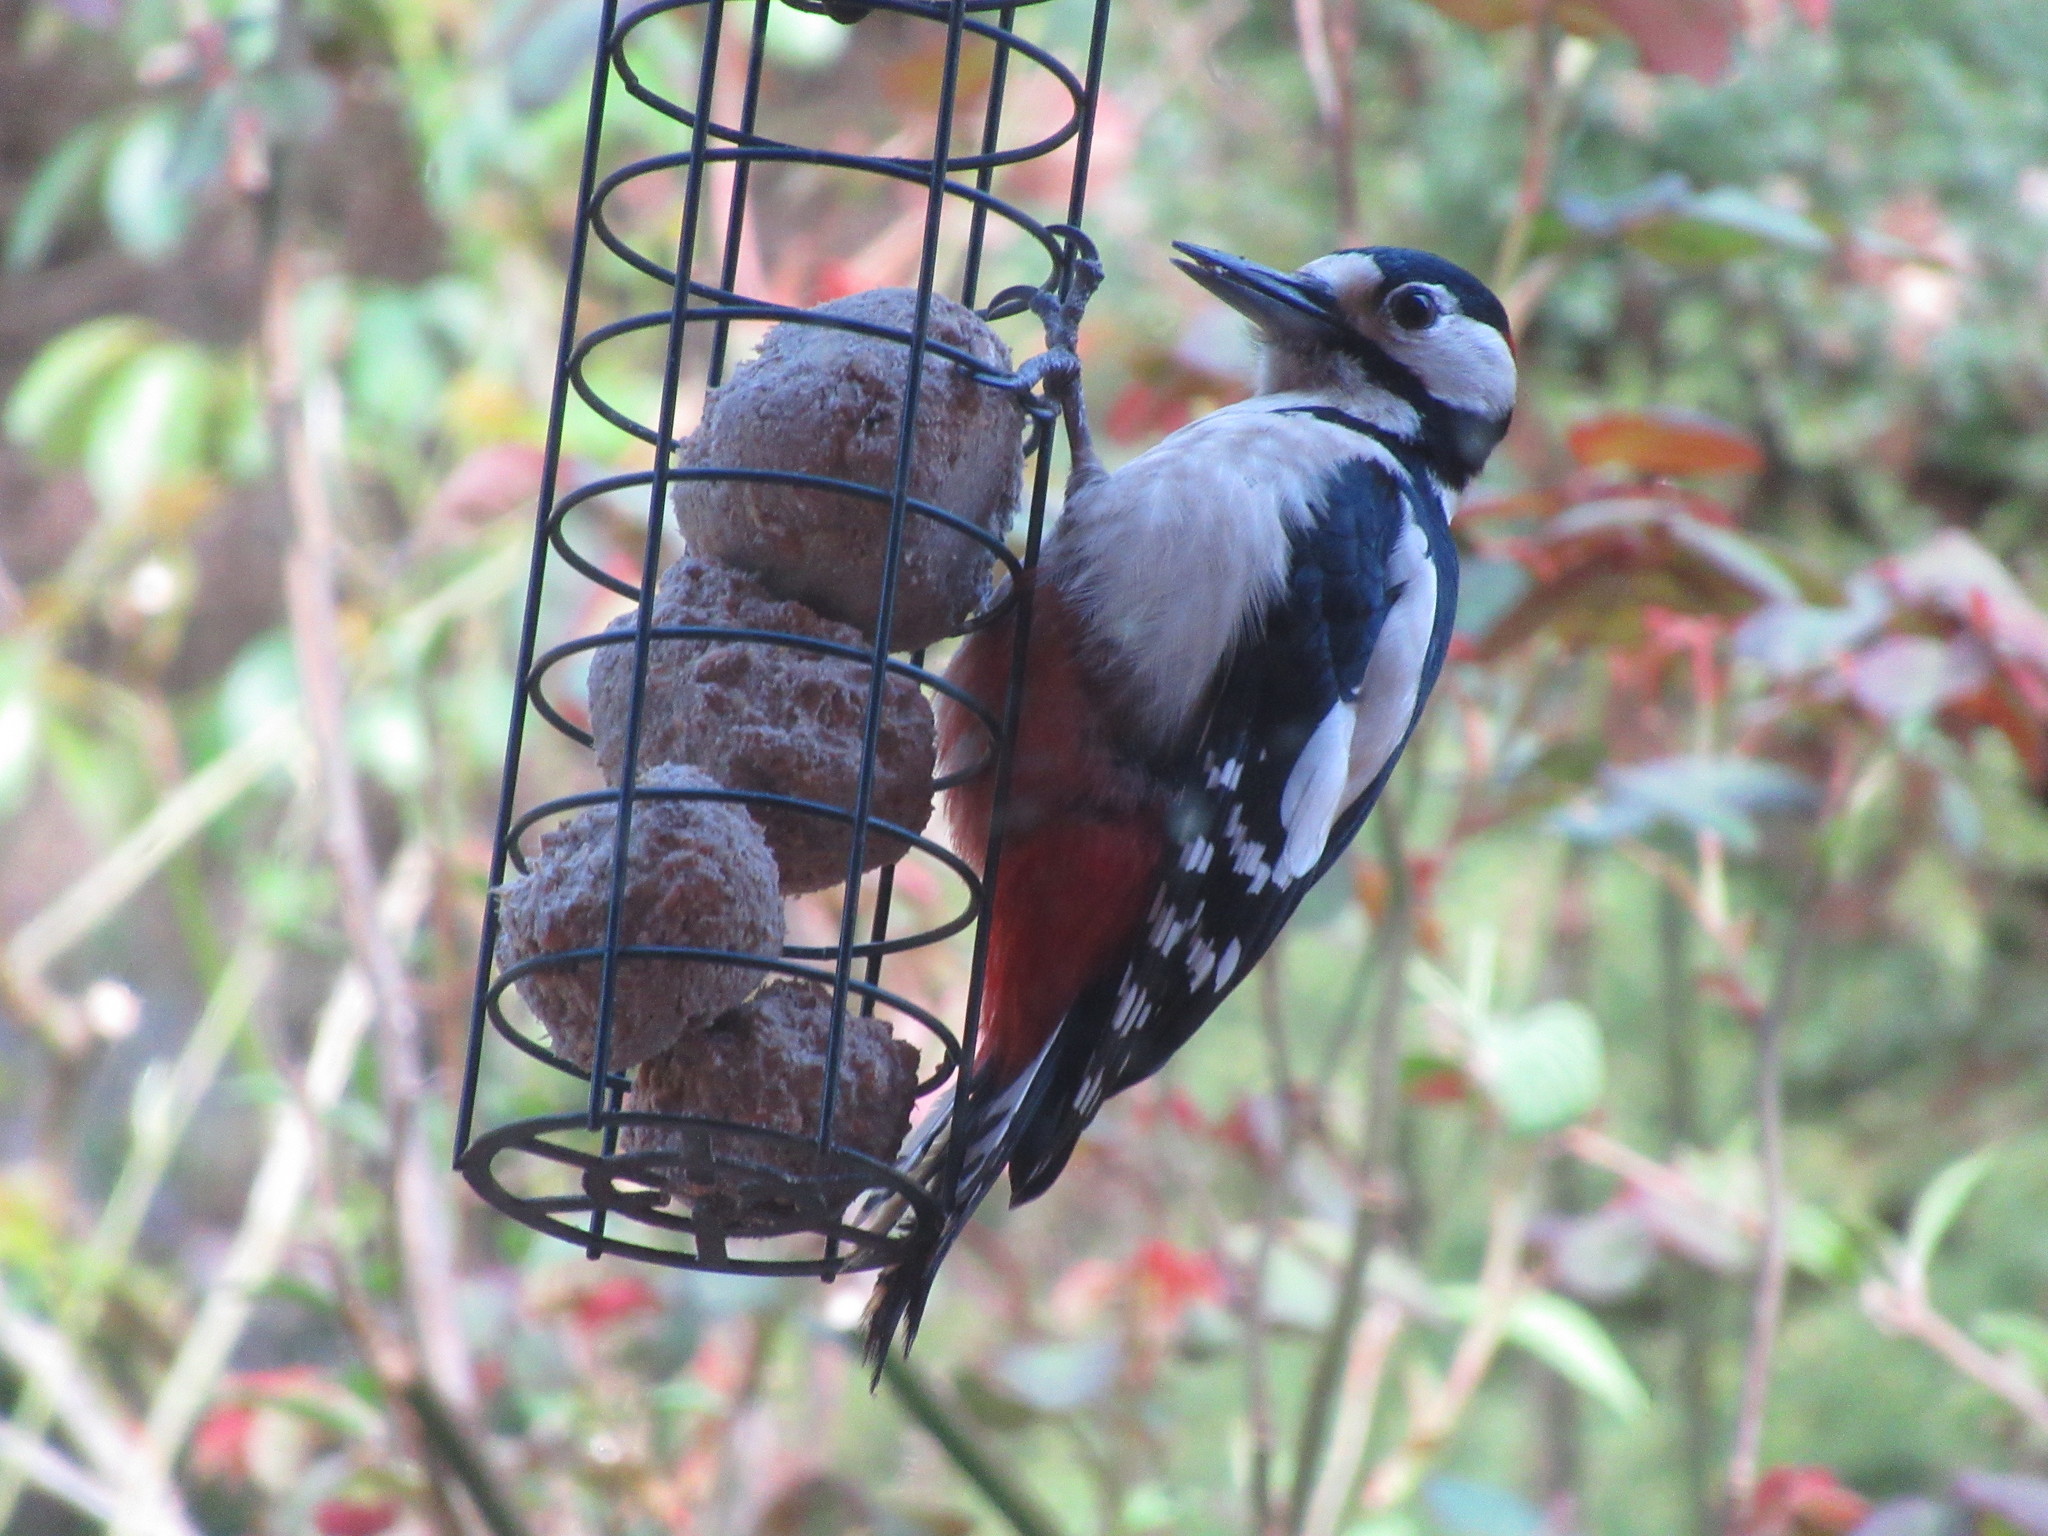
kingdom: Animalia
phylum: Chordata
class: Aves
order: Piciformes
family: Picidae
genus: Dendrocopos
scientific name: Dendrocopos major
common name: Great spotted woodpecker
